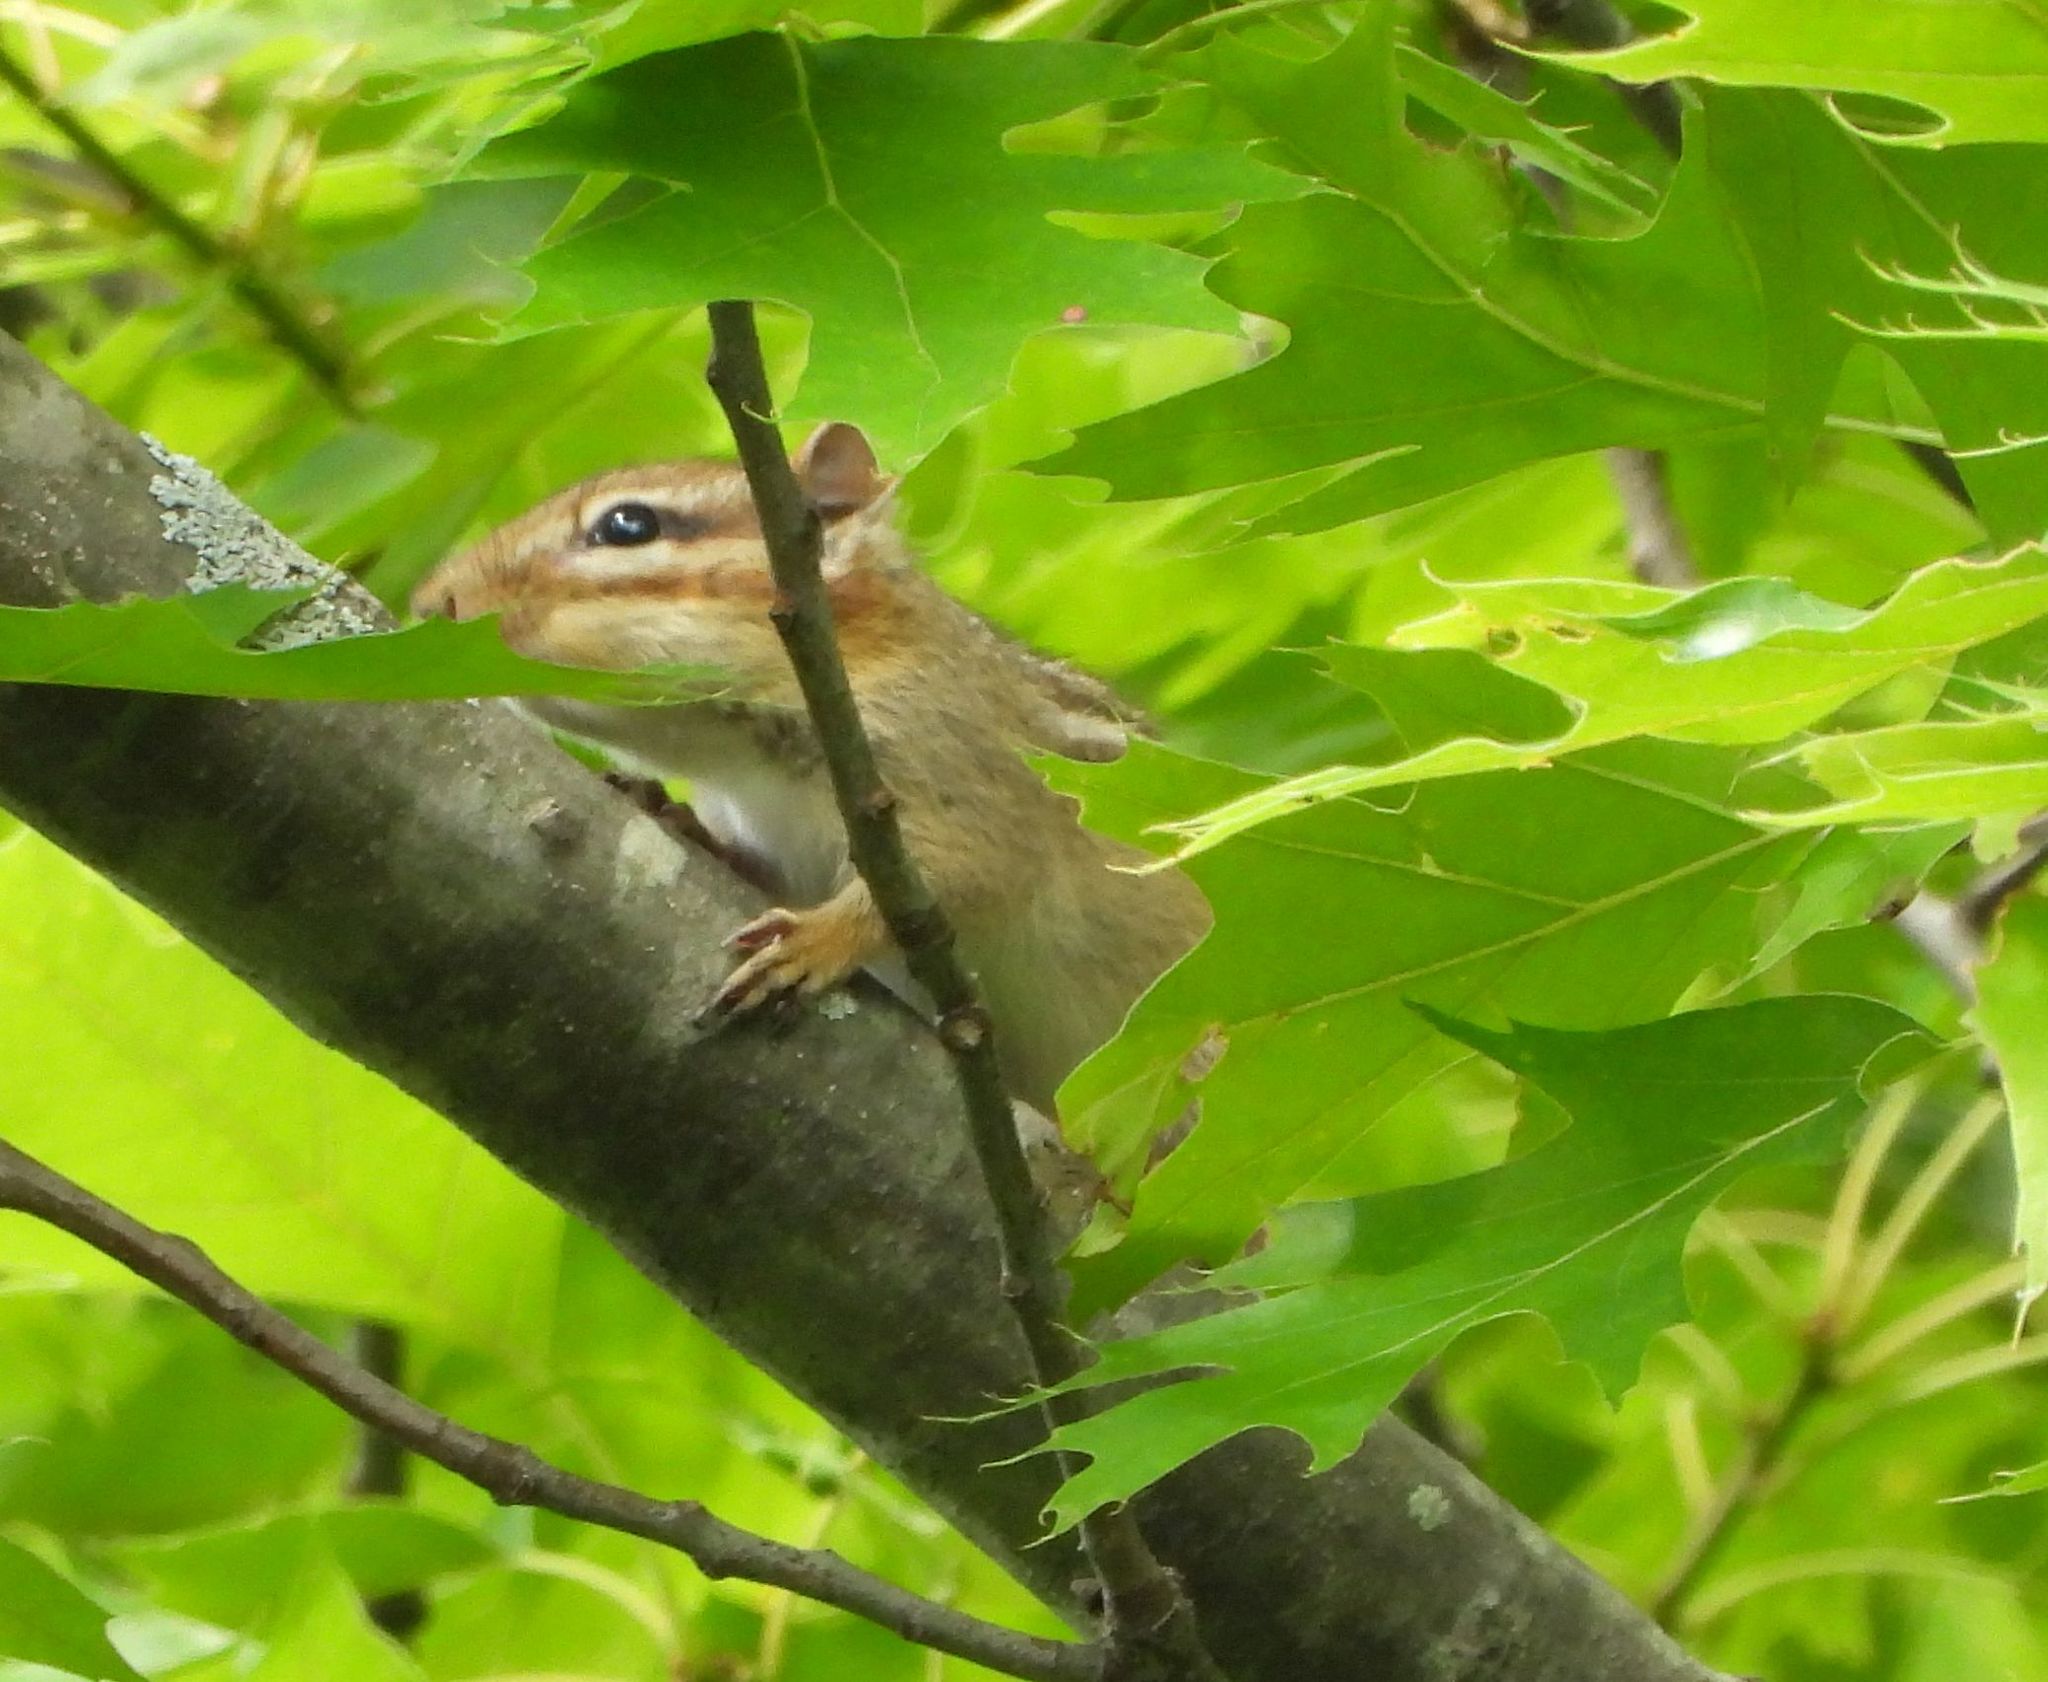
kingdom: Animalia
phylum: Chordata
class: Mammalia
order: Rodentia
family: Sciuridae
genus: Tamias
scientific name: Tamias striatus
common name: Eastern chipmunk
